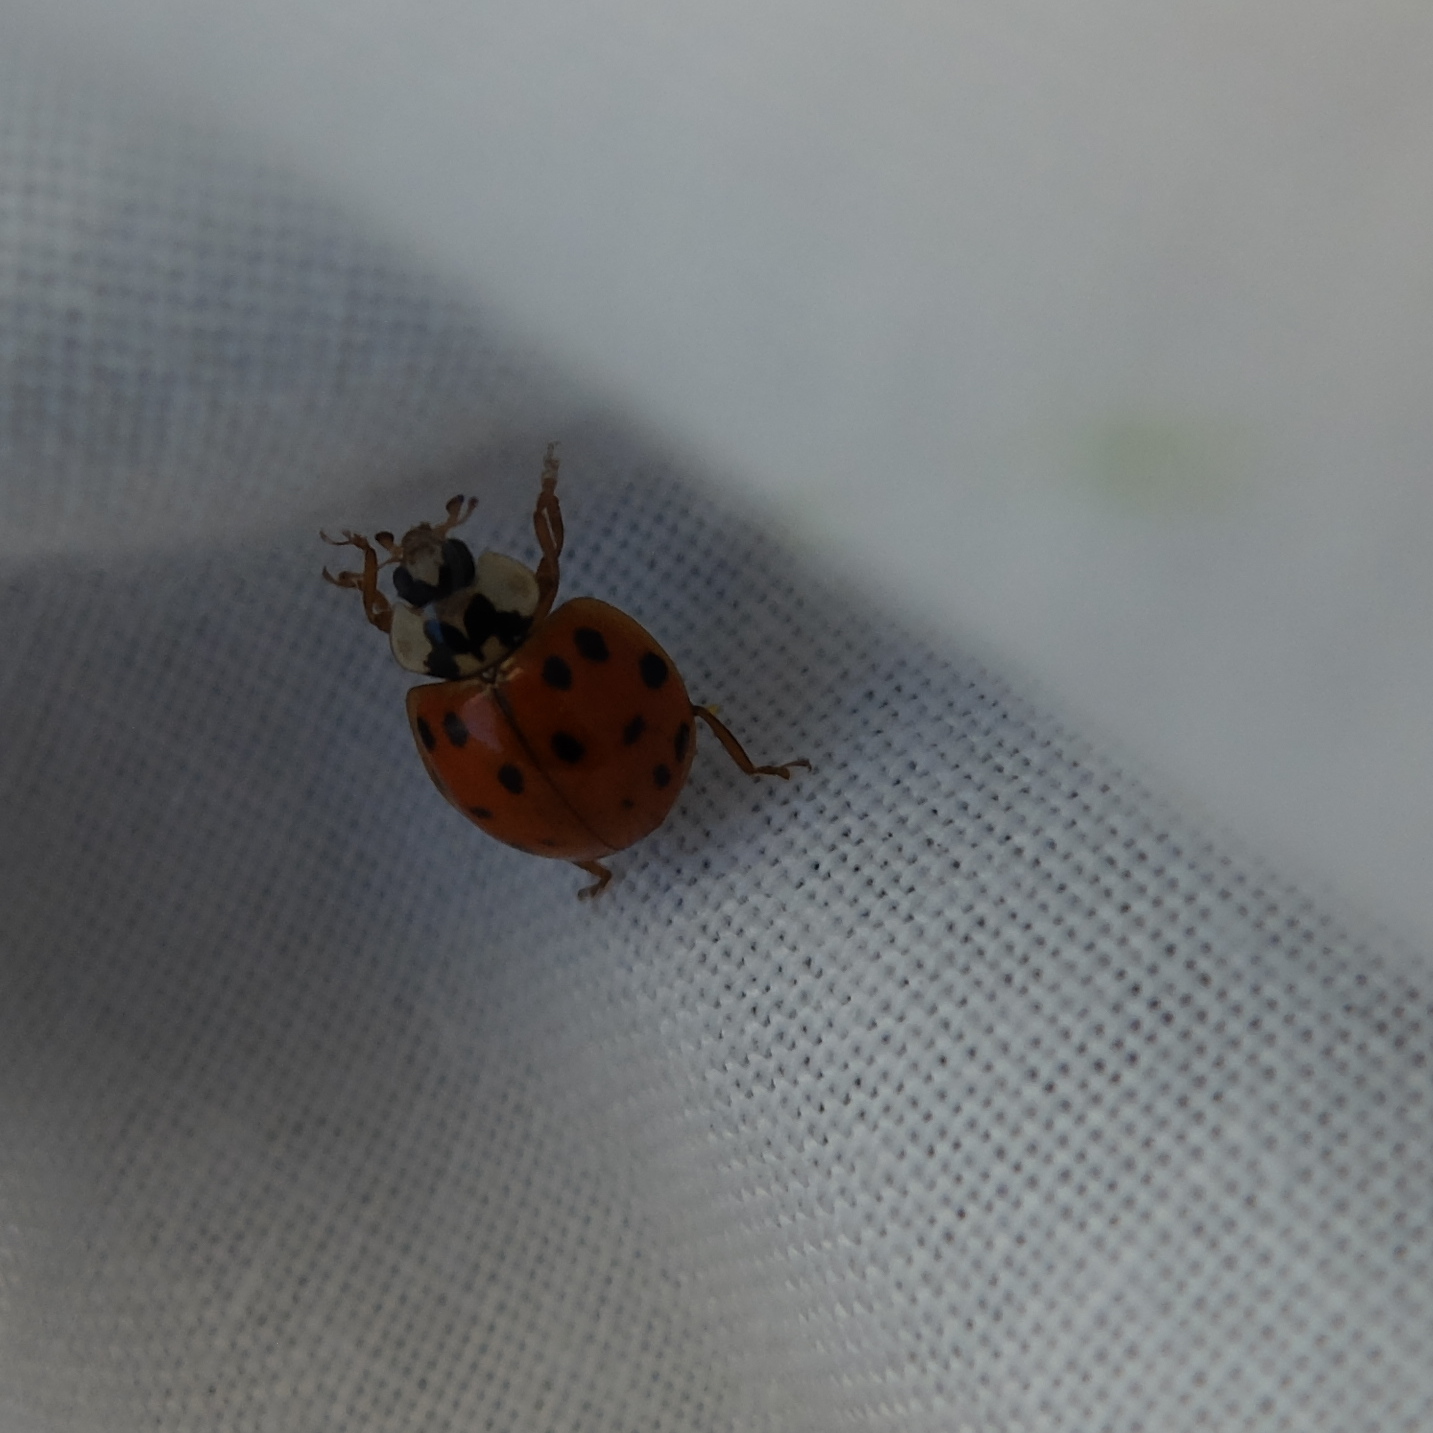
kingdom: Animalia
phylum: Arthropoda
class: Insecta
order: Coleoptera
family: Coccinellidae
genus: Harmonia
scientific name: Harmonia axyridis
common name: Harlequin ladybird
